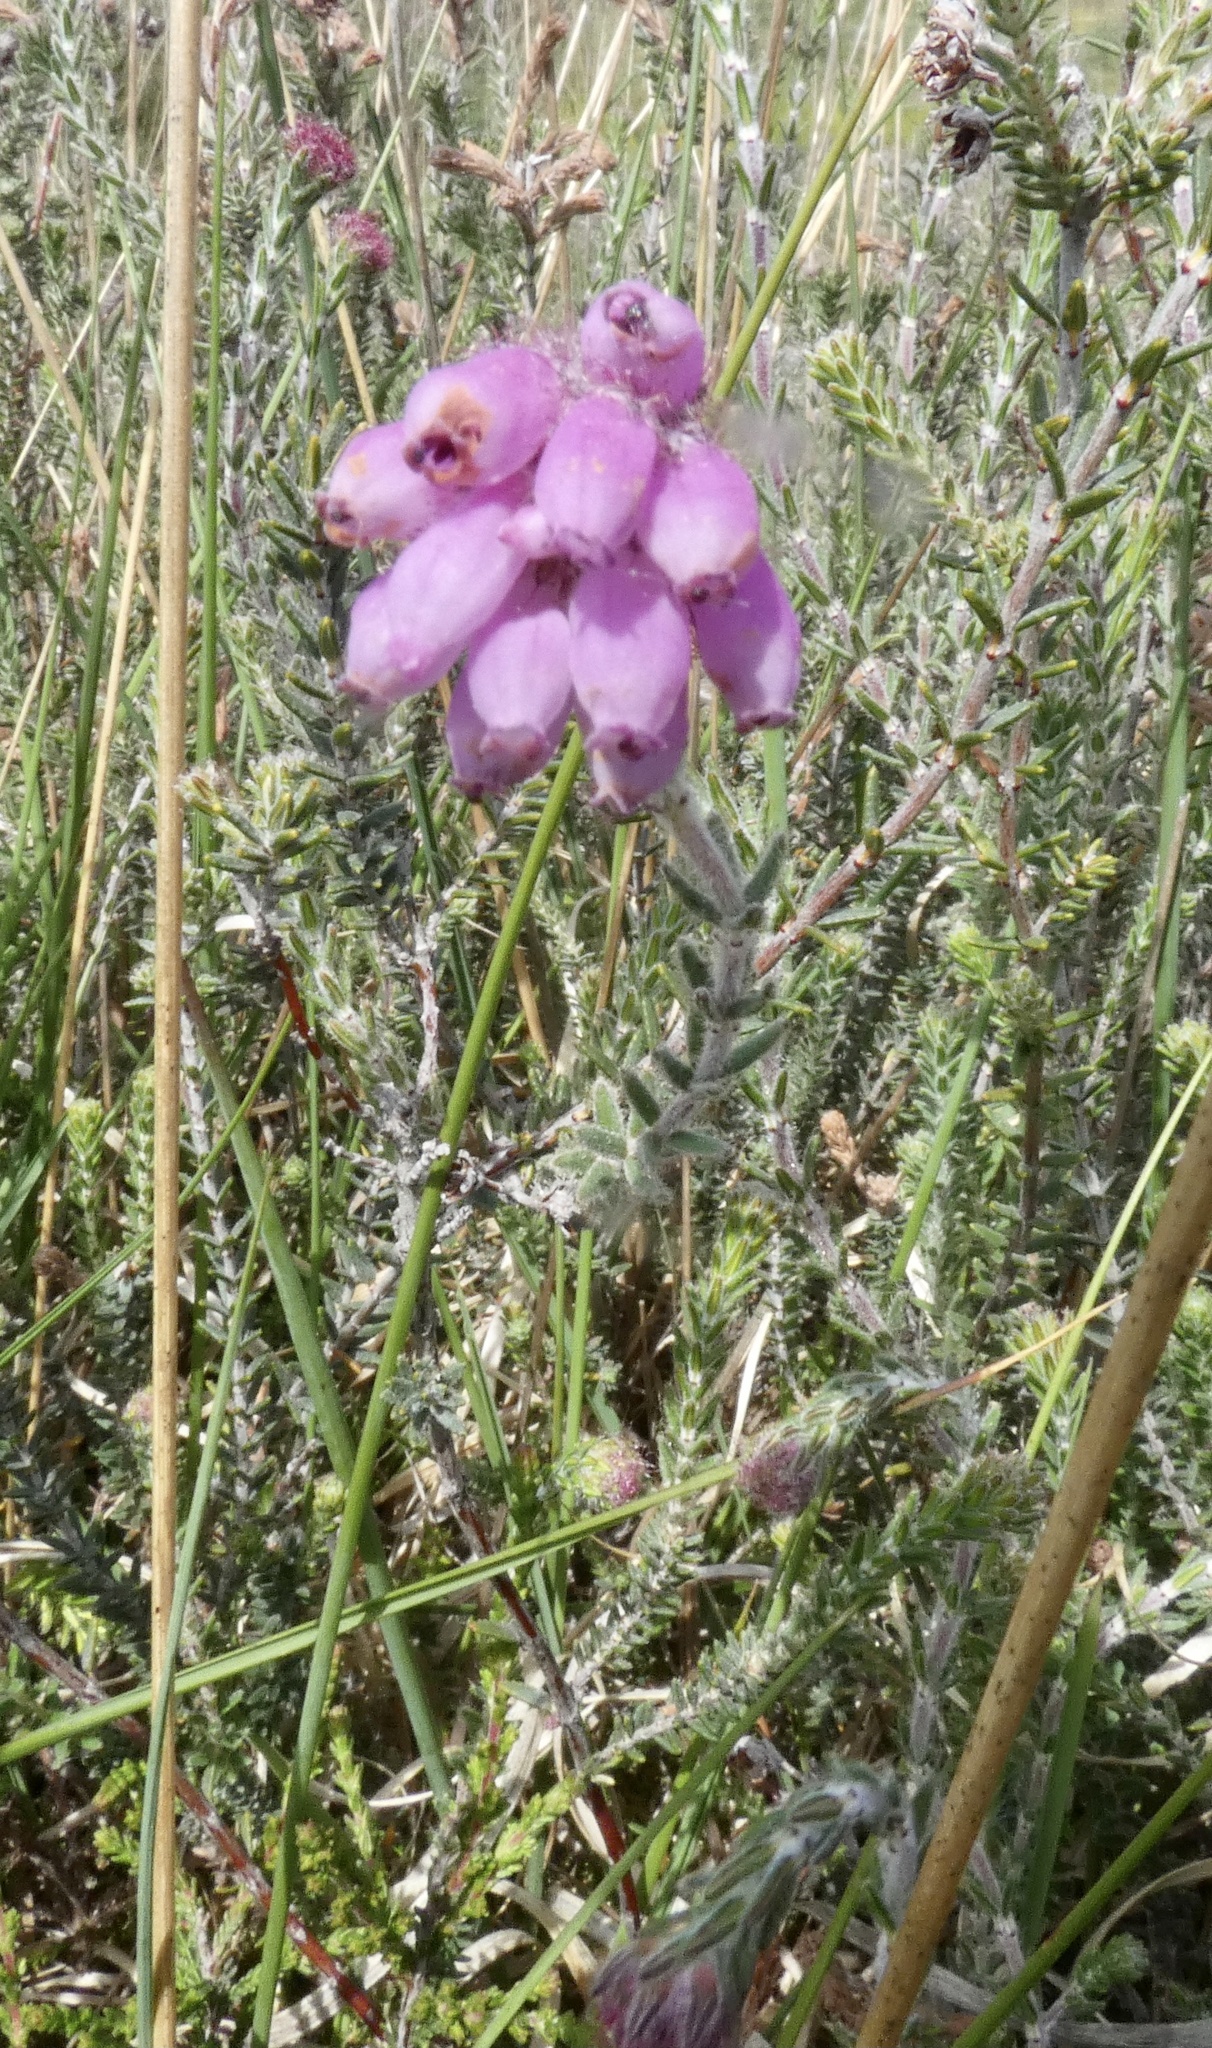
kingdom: Plantae
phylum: Tracheophyta
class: Magnoliopsida
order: Ericales
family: Ericaceae
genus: Erica
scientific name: Erica tetralix
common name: Cross-leaved heath
